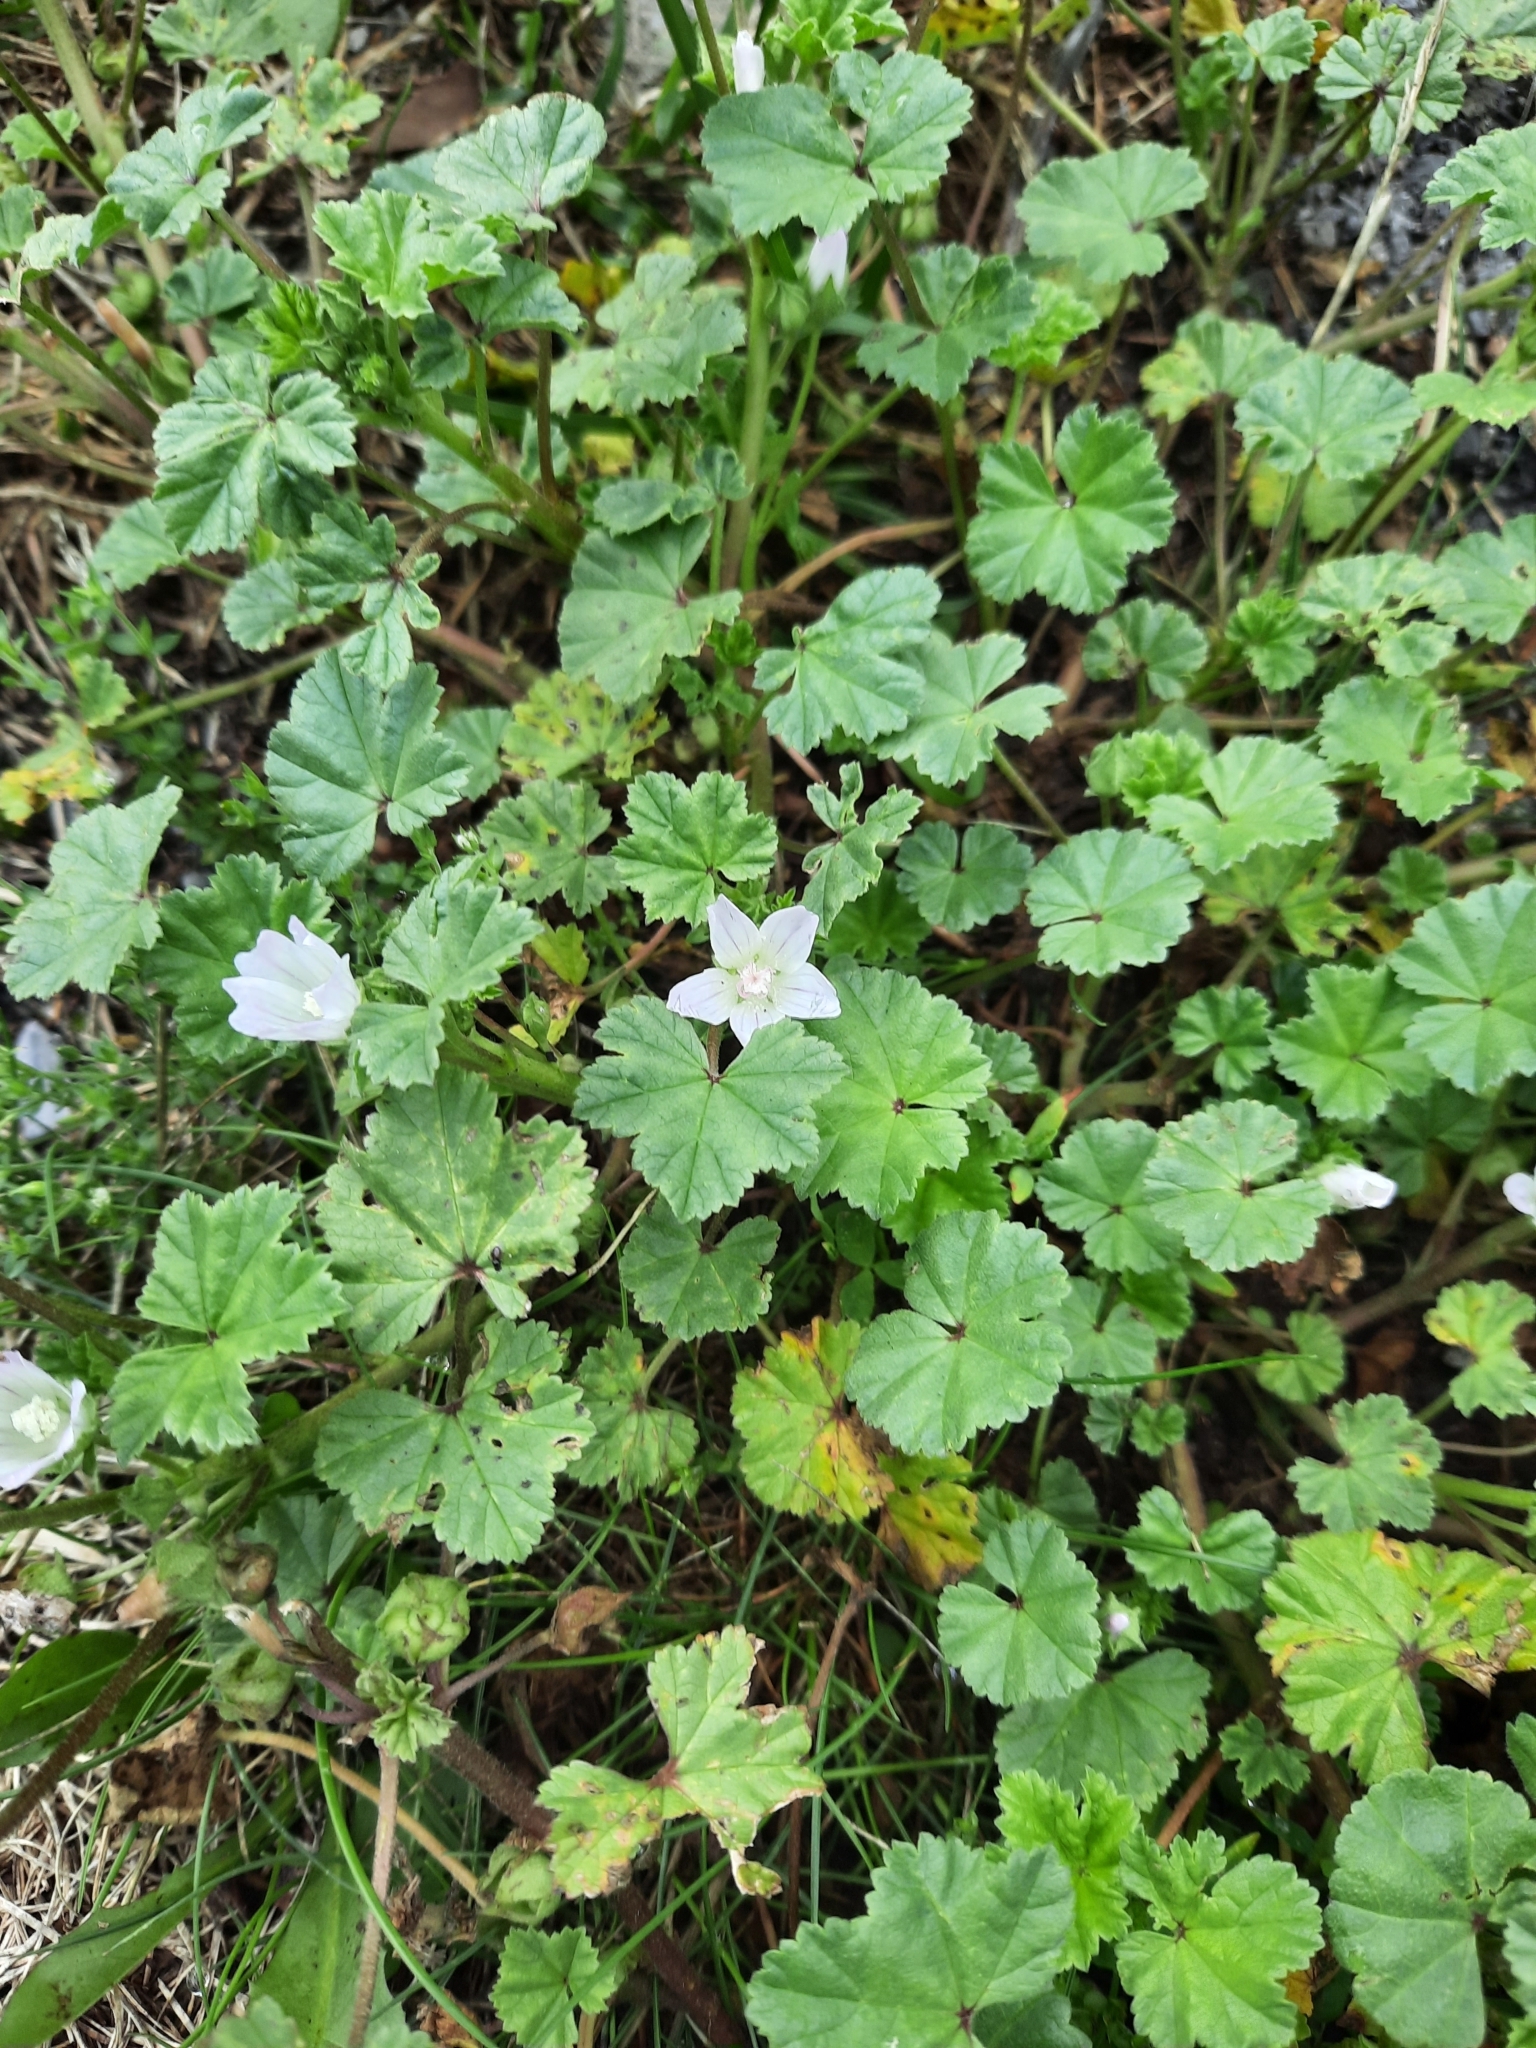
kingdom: Plantae
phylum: Tracheophyta
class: Magnoliopsida
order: Malvales
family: Malvaceae
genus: Malva
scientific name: Malva neglecta
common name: Common mallow
